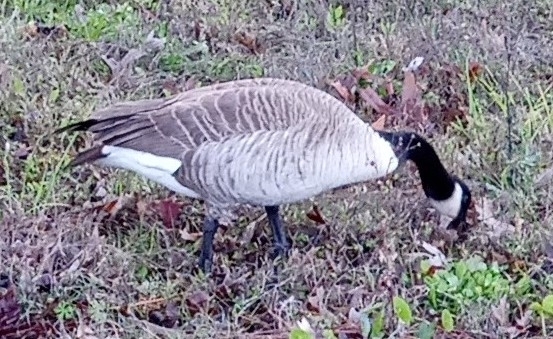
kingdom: Animalia
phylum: Chordata
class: Aves
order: Anseriformes
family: Anatidae
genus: Branta
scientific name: Branta canadensis
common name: Canada goose
